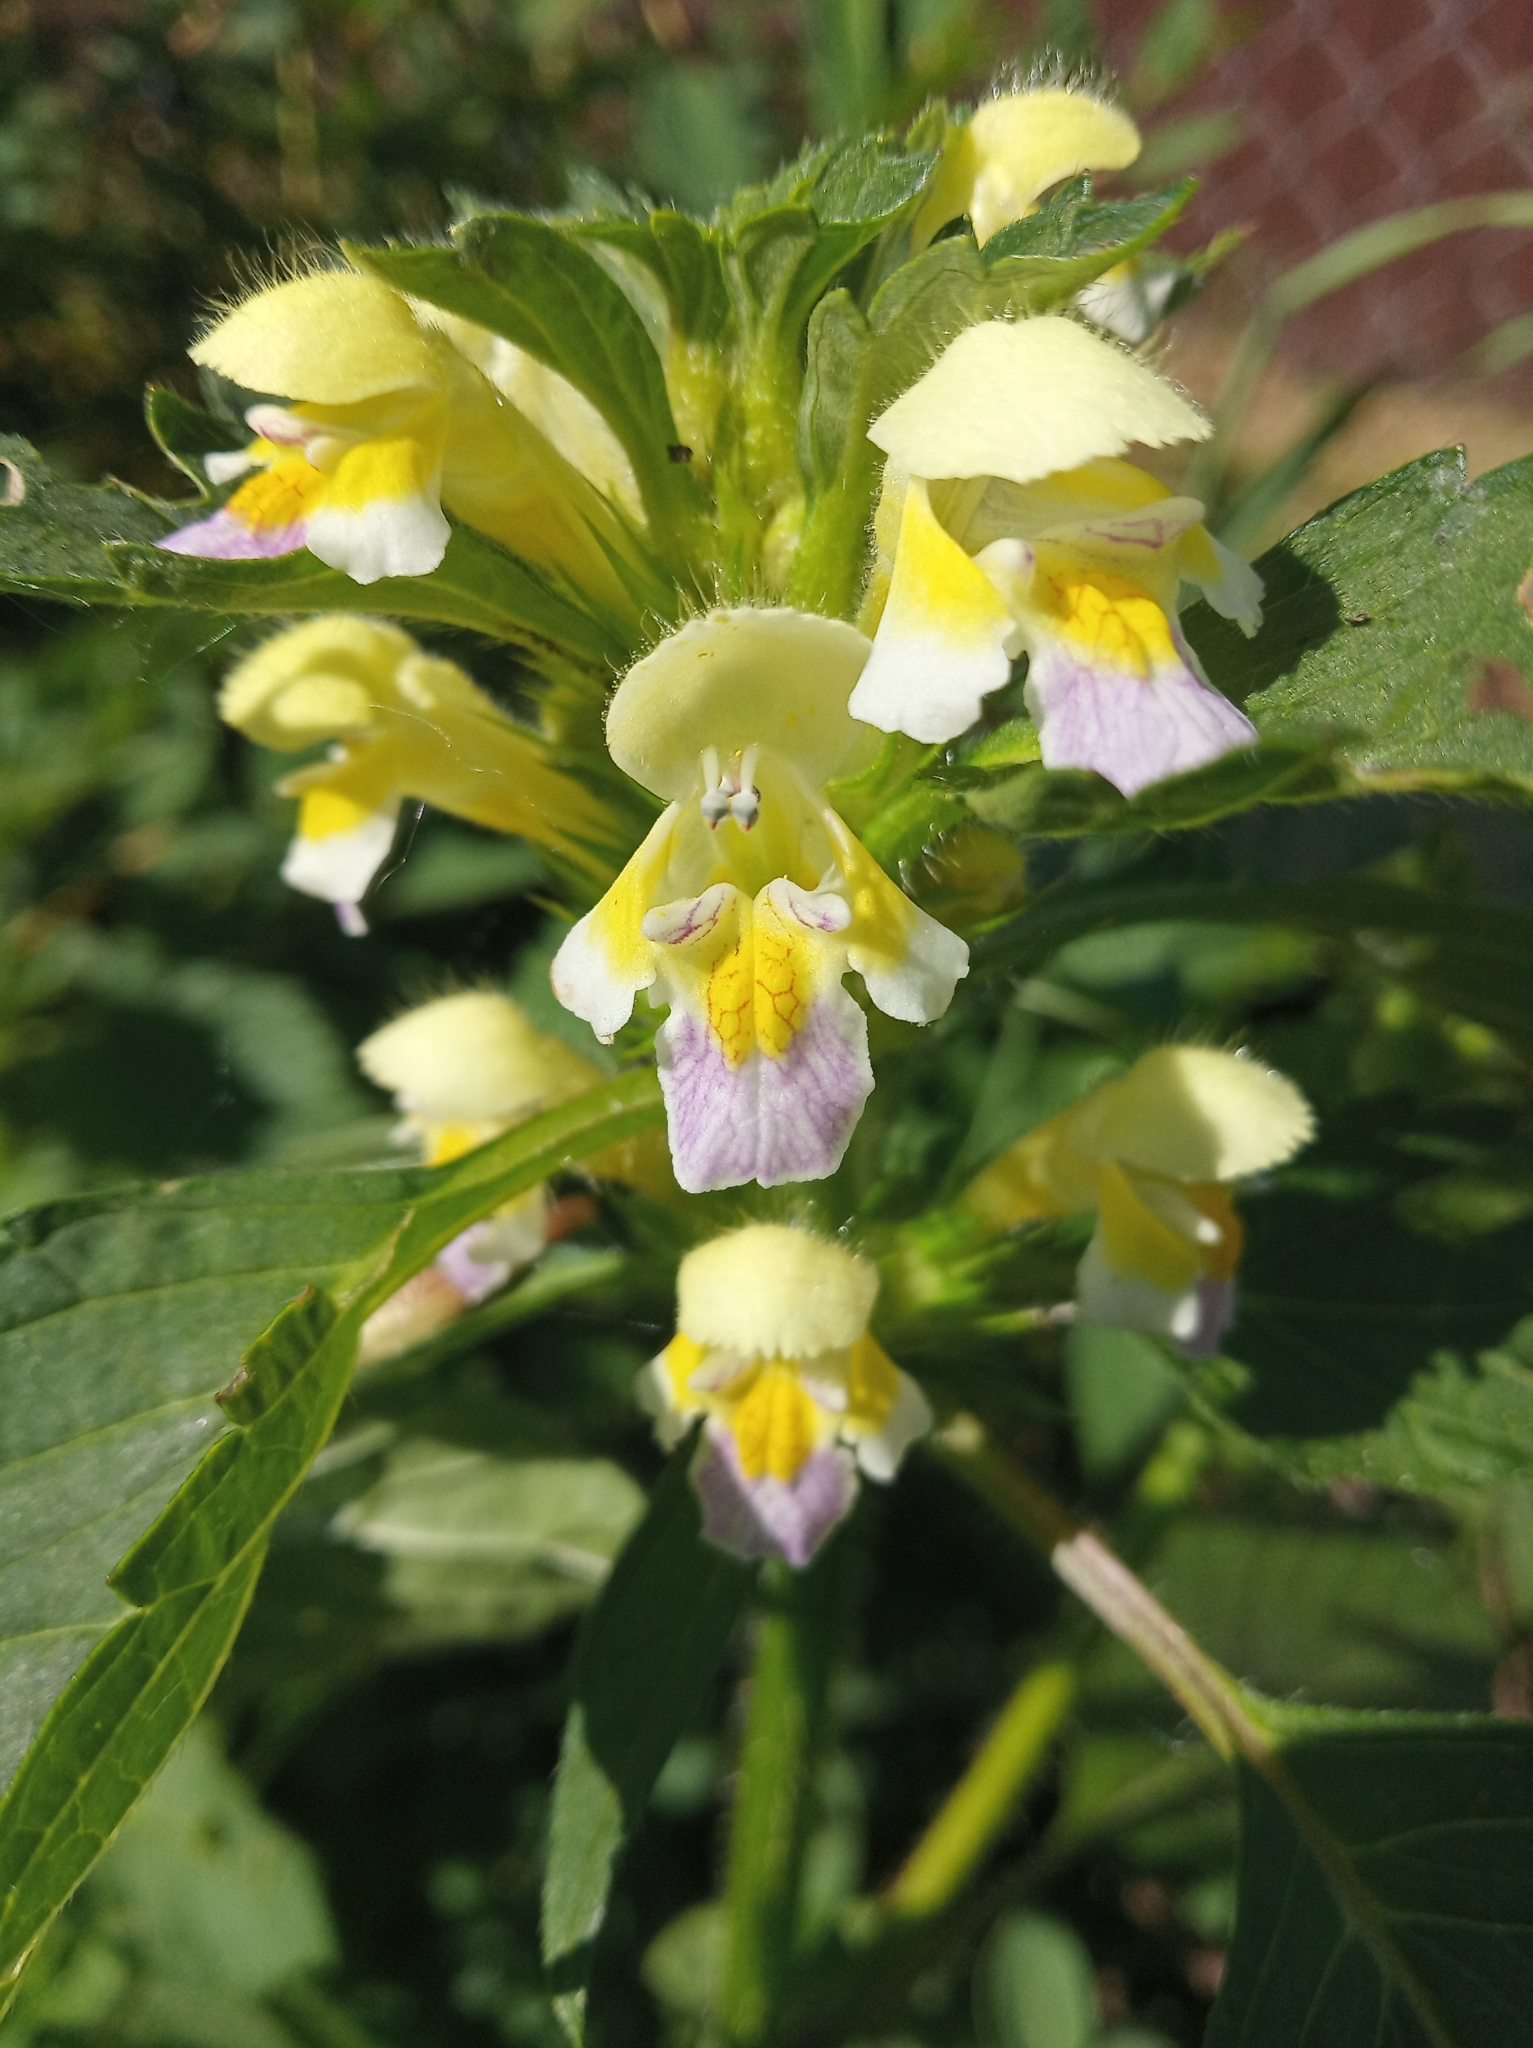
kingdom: Plantae
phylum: Tracheophyta
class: Magnoliopsida
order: Lamiales
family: Lamiaceae
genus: Galeopsis
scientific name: Galeopsis speciosa
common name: Large-flowered hemp-nettle
